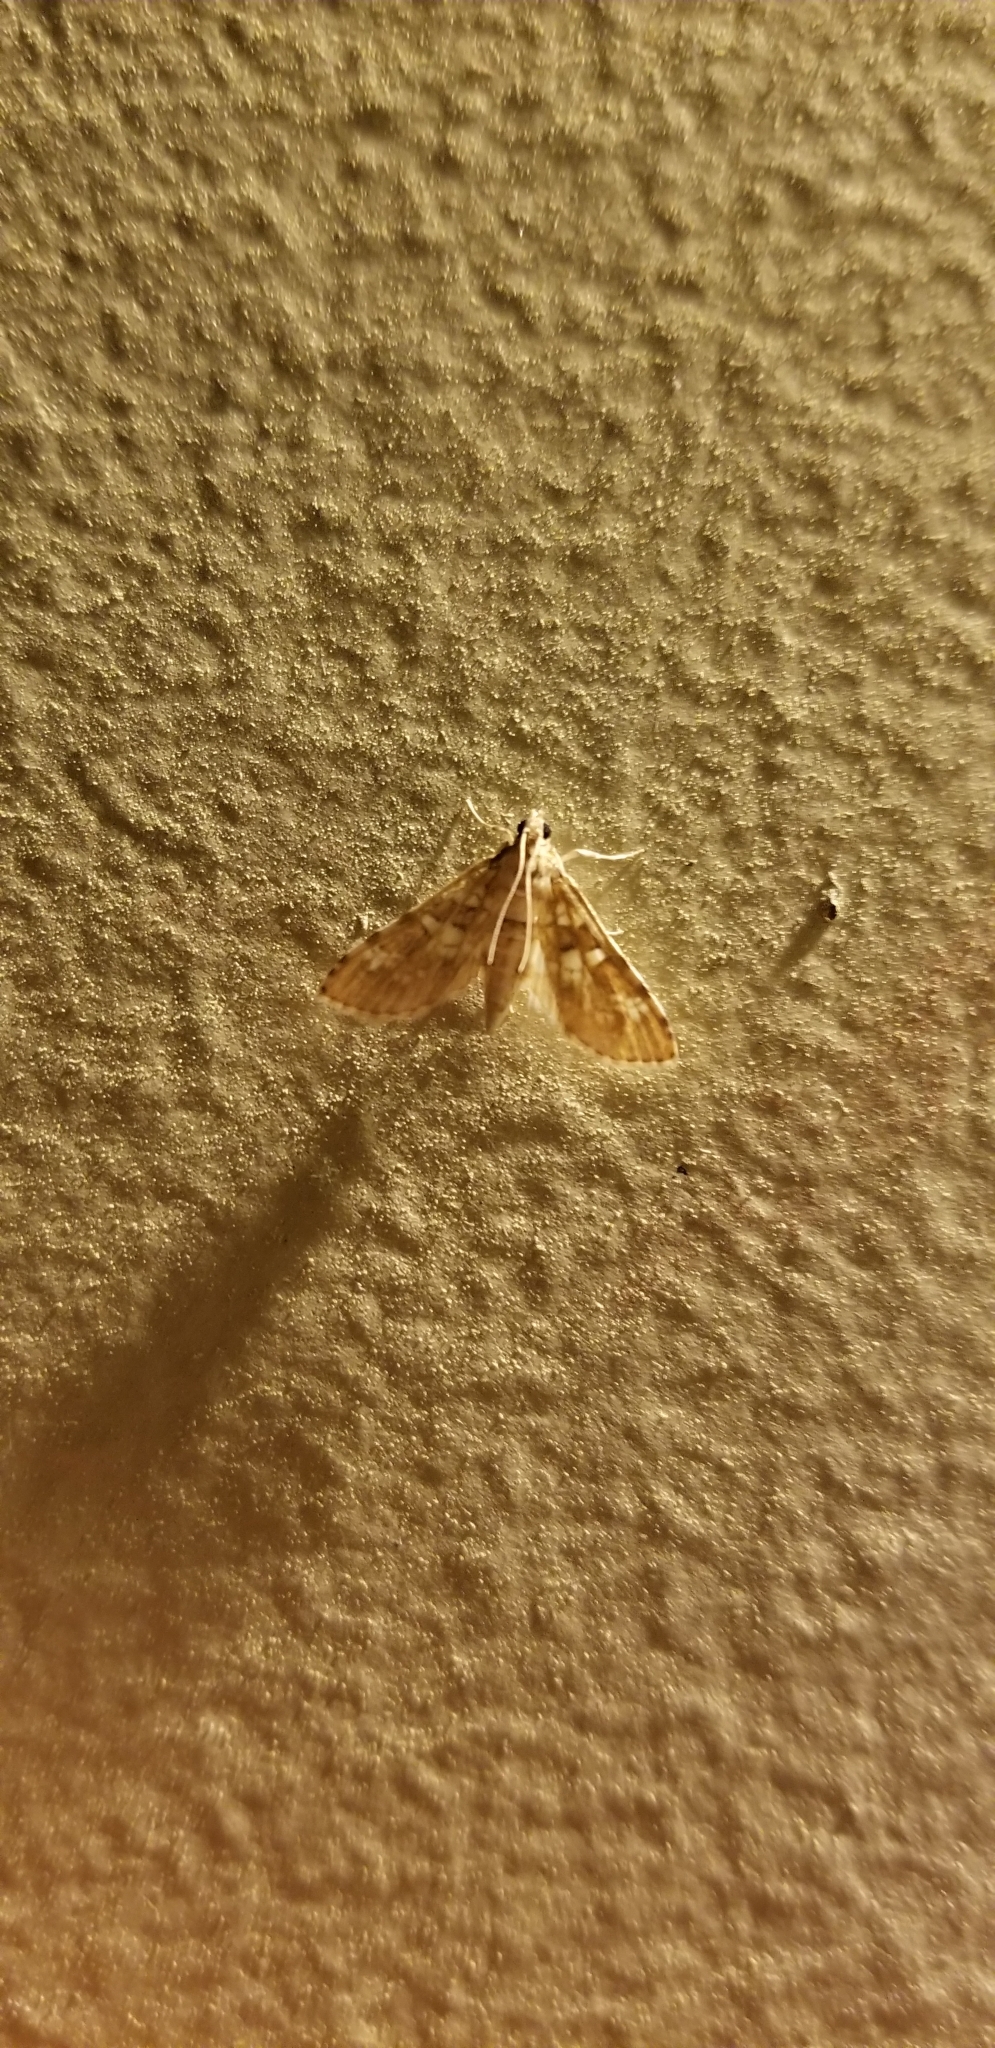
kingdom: Animalia
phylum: Arthropoda
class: Insecta
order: Lepidoptera
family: Crambidae
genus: Samea
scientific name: Samea multiplicalis
